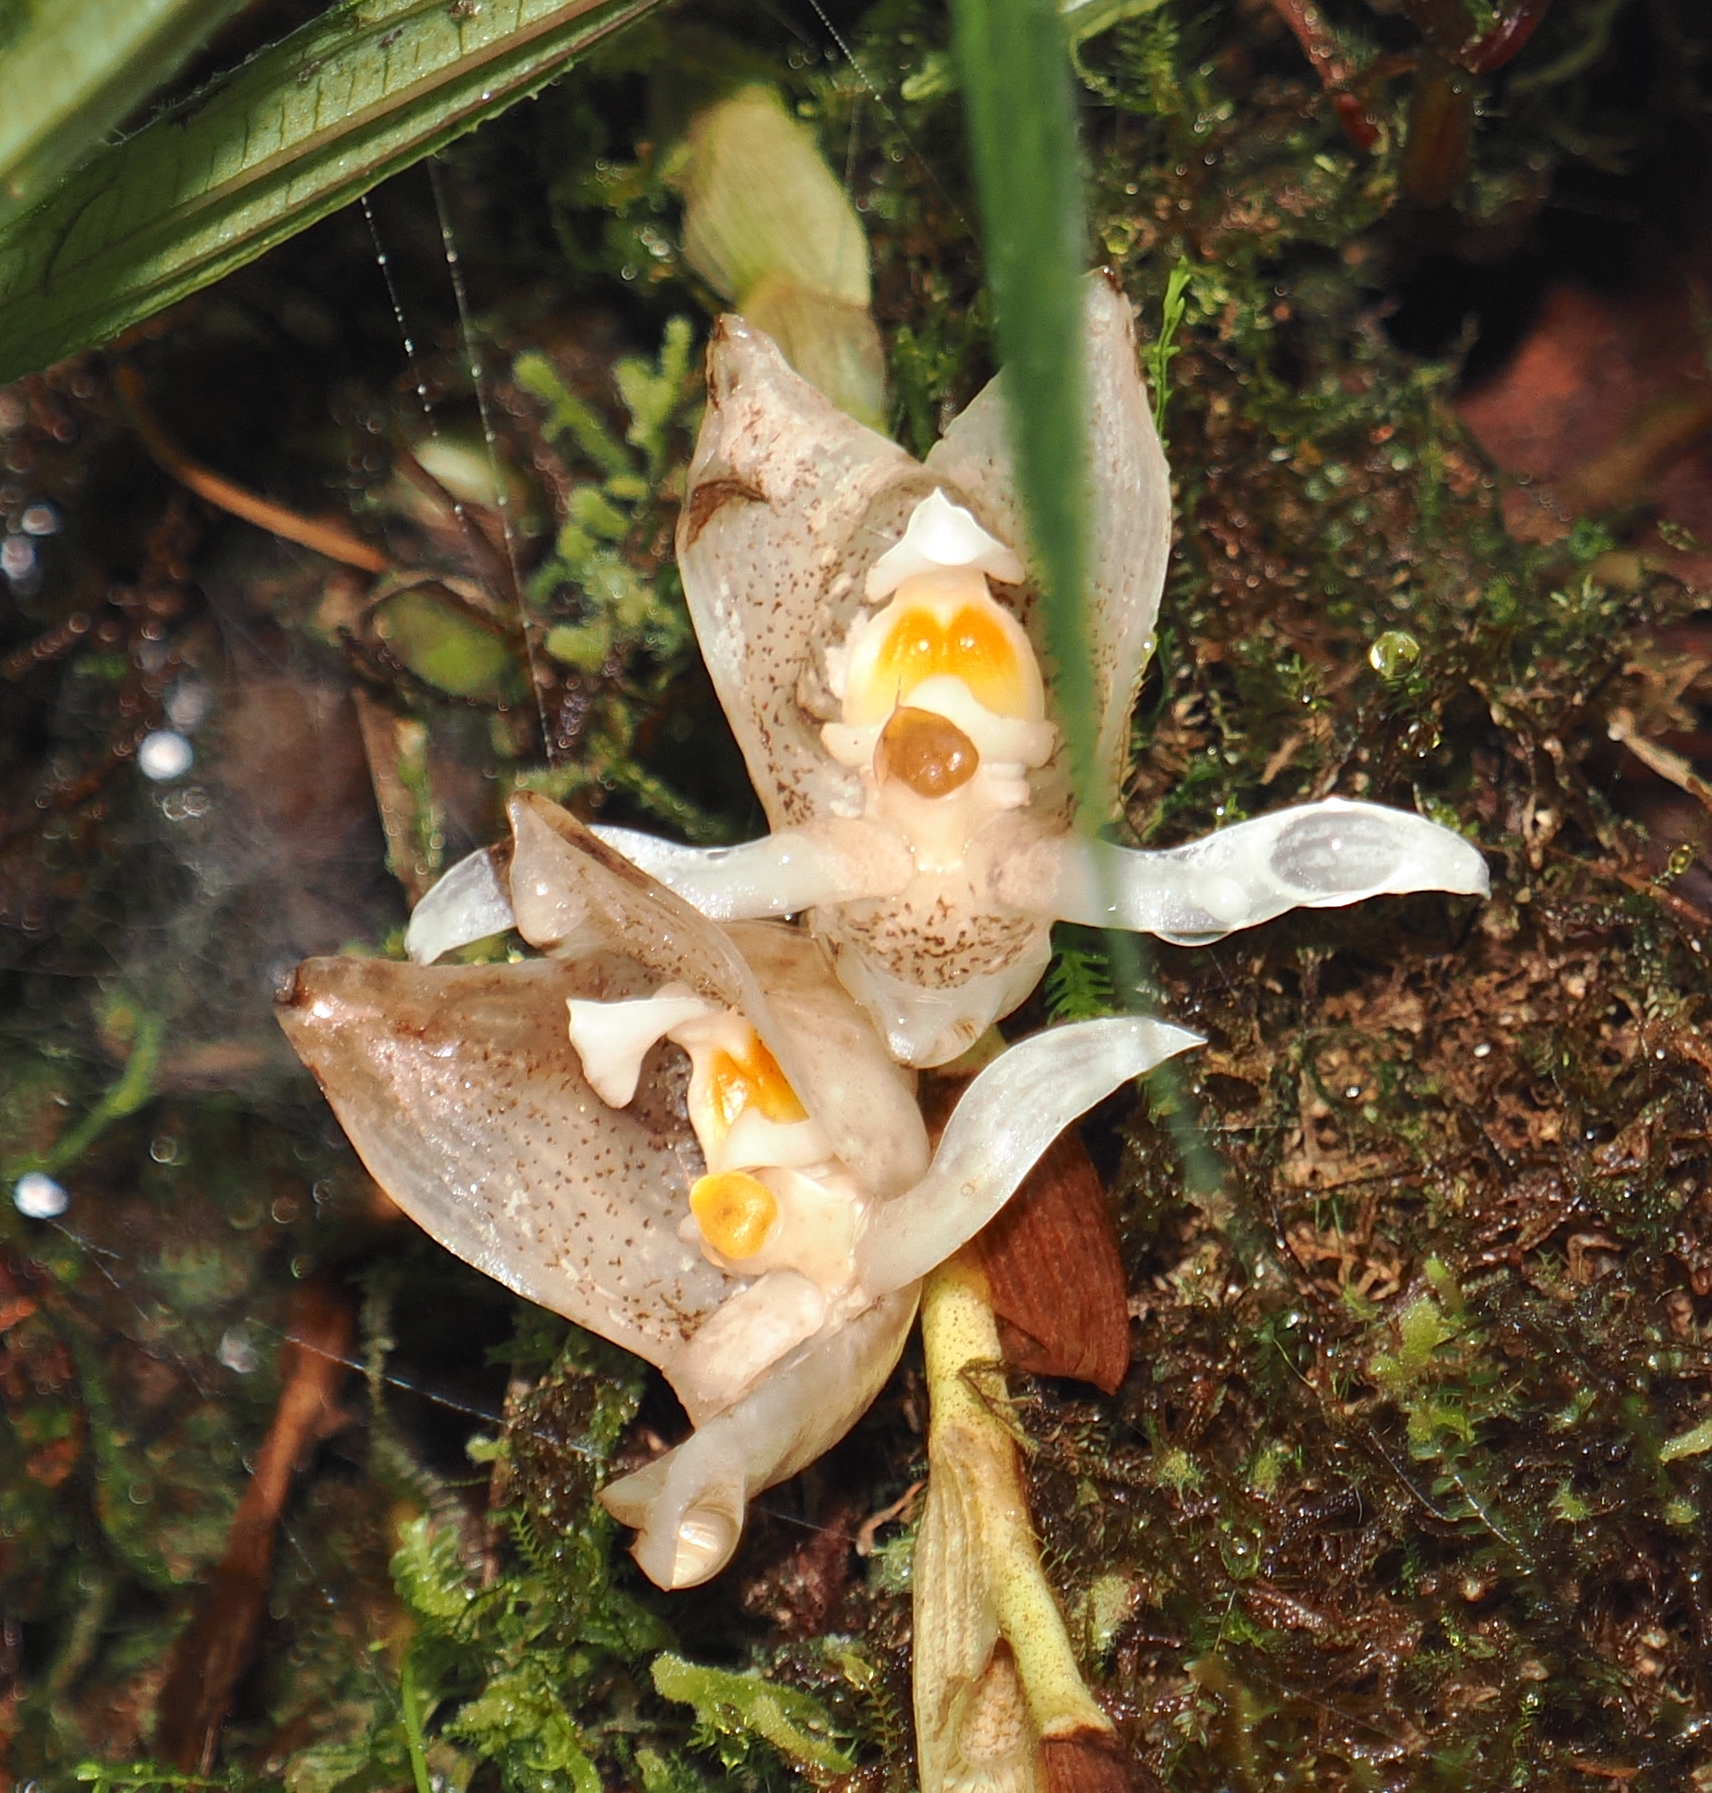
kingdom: Plantae
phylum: Tracheophyta
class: Liliopsida
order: Asparagales
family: Orchidaceae
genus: Trevoria
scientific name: Trevoria zahlbruckneriana
